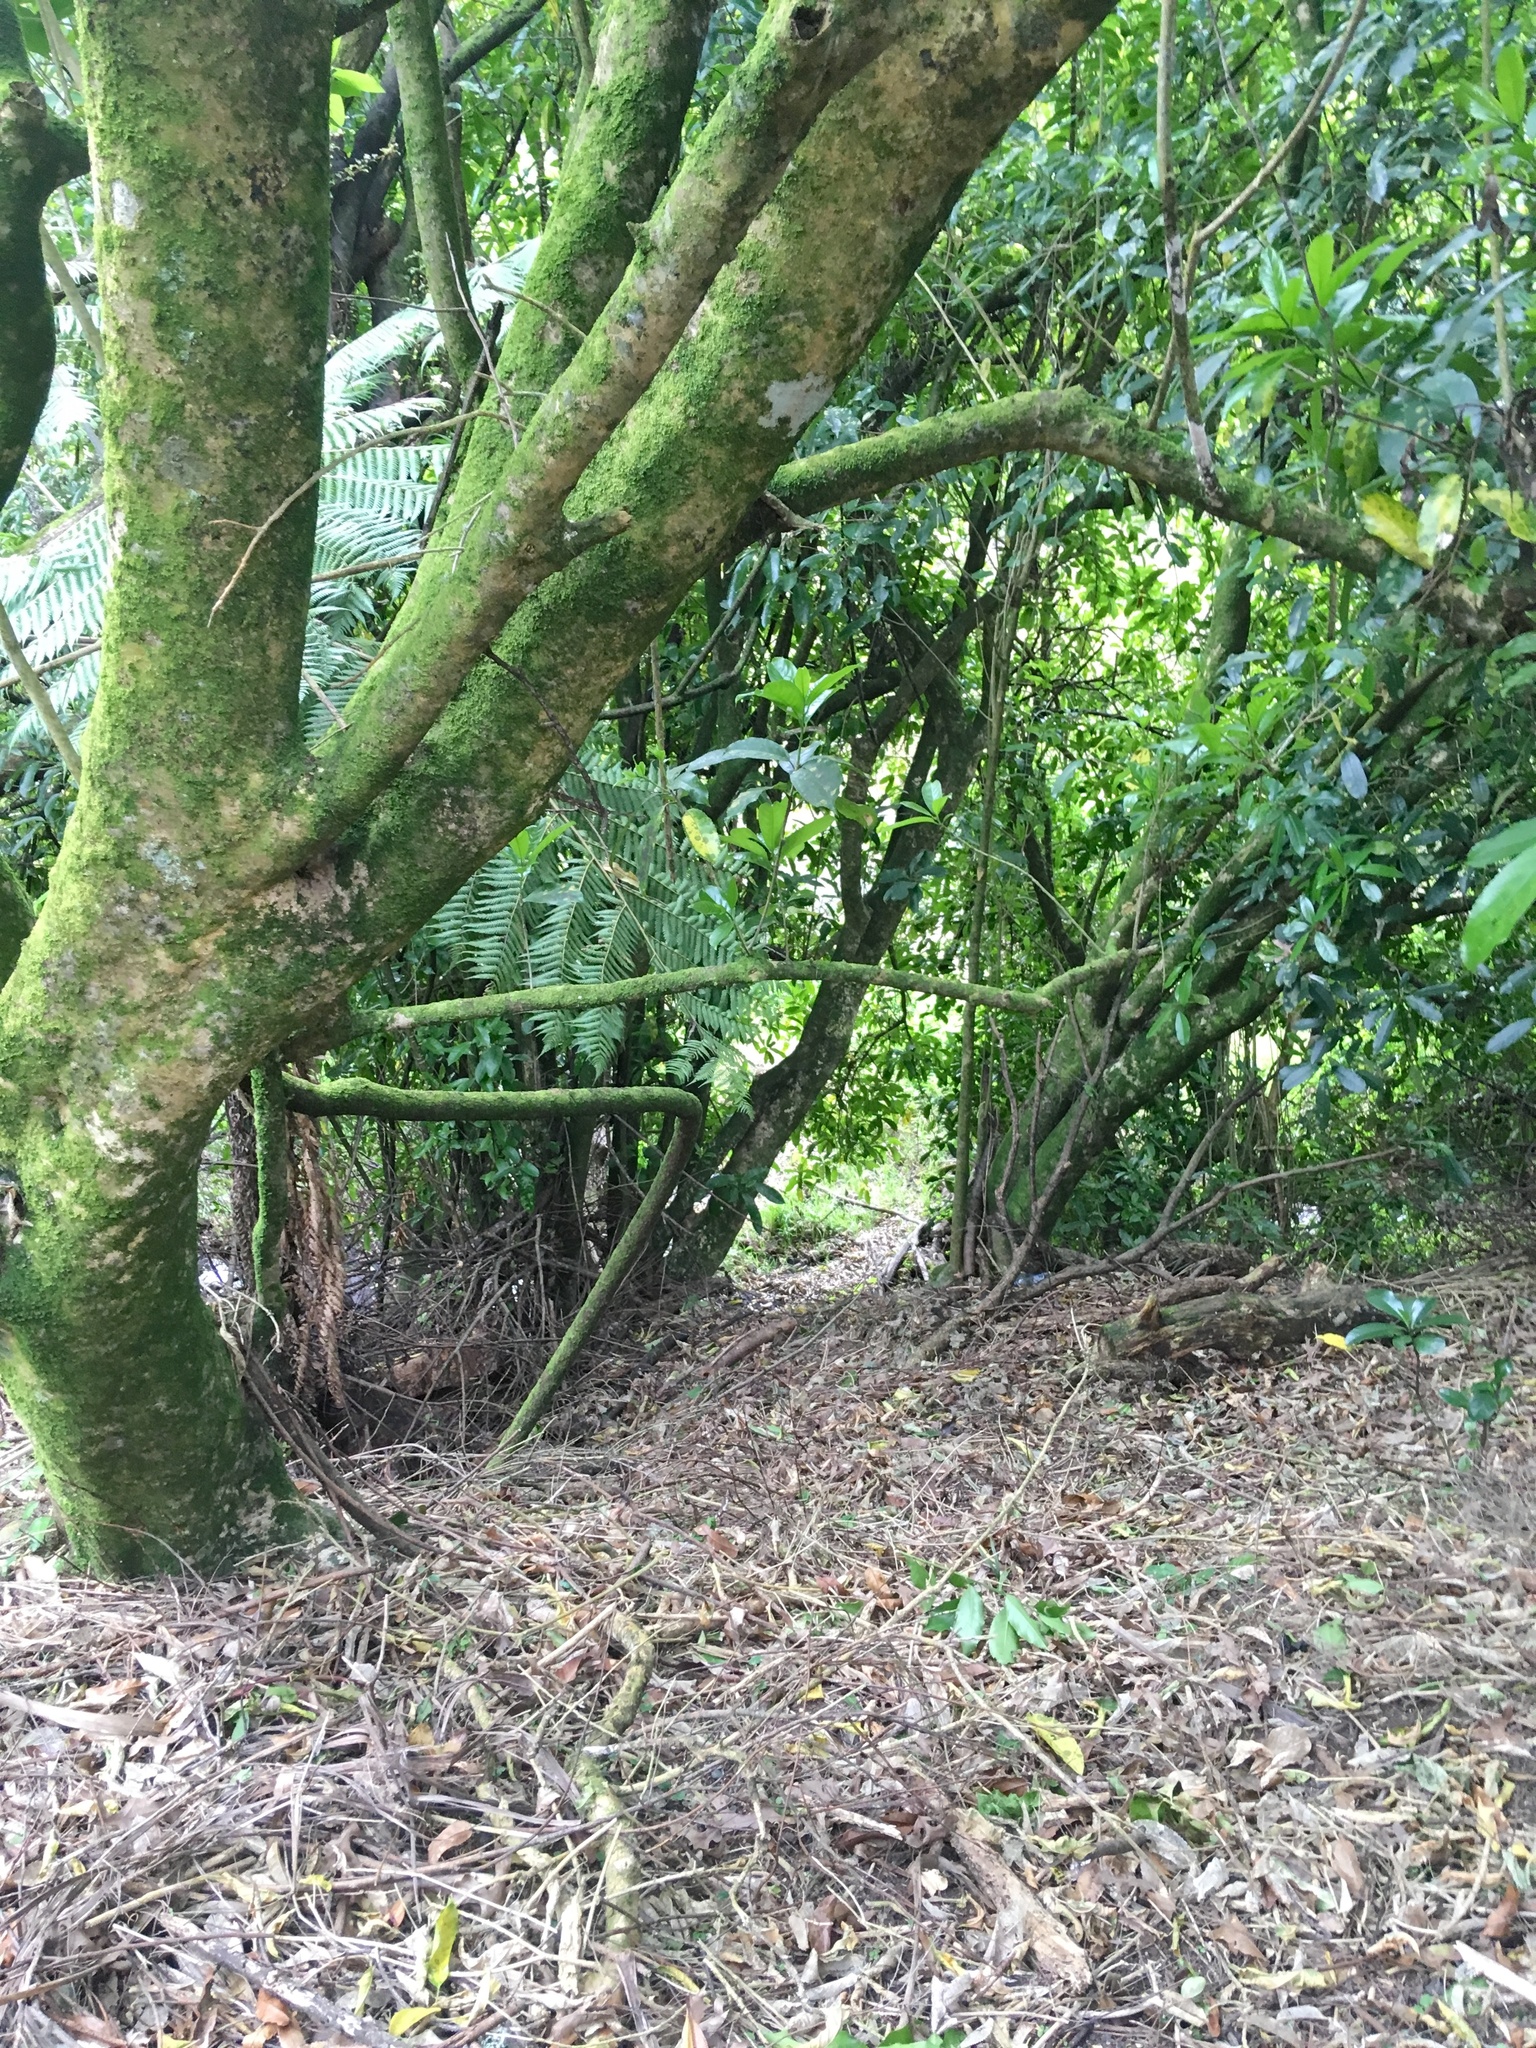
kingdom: Plantae
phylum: Tracheophyta
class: Polypodiopsida
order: Cyatheales
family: Cyatheaceae
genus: Alsophila
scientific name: Alsophila dealbata
